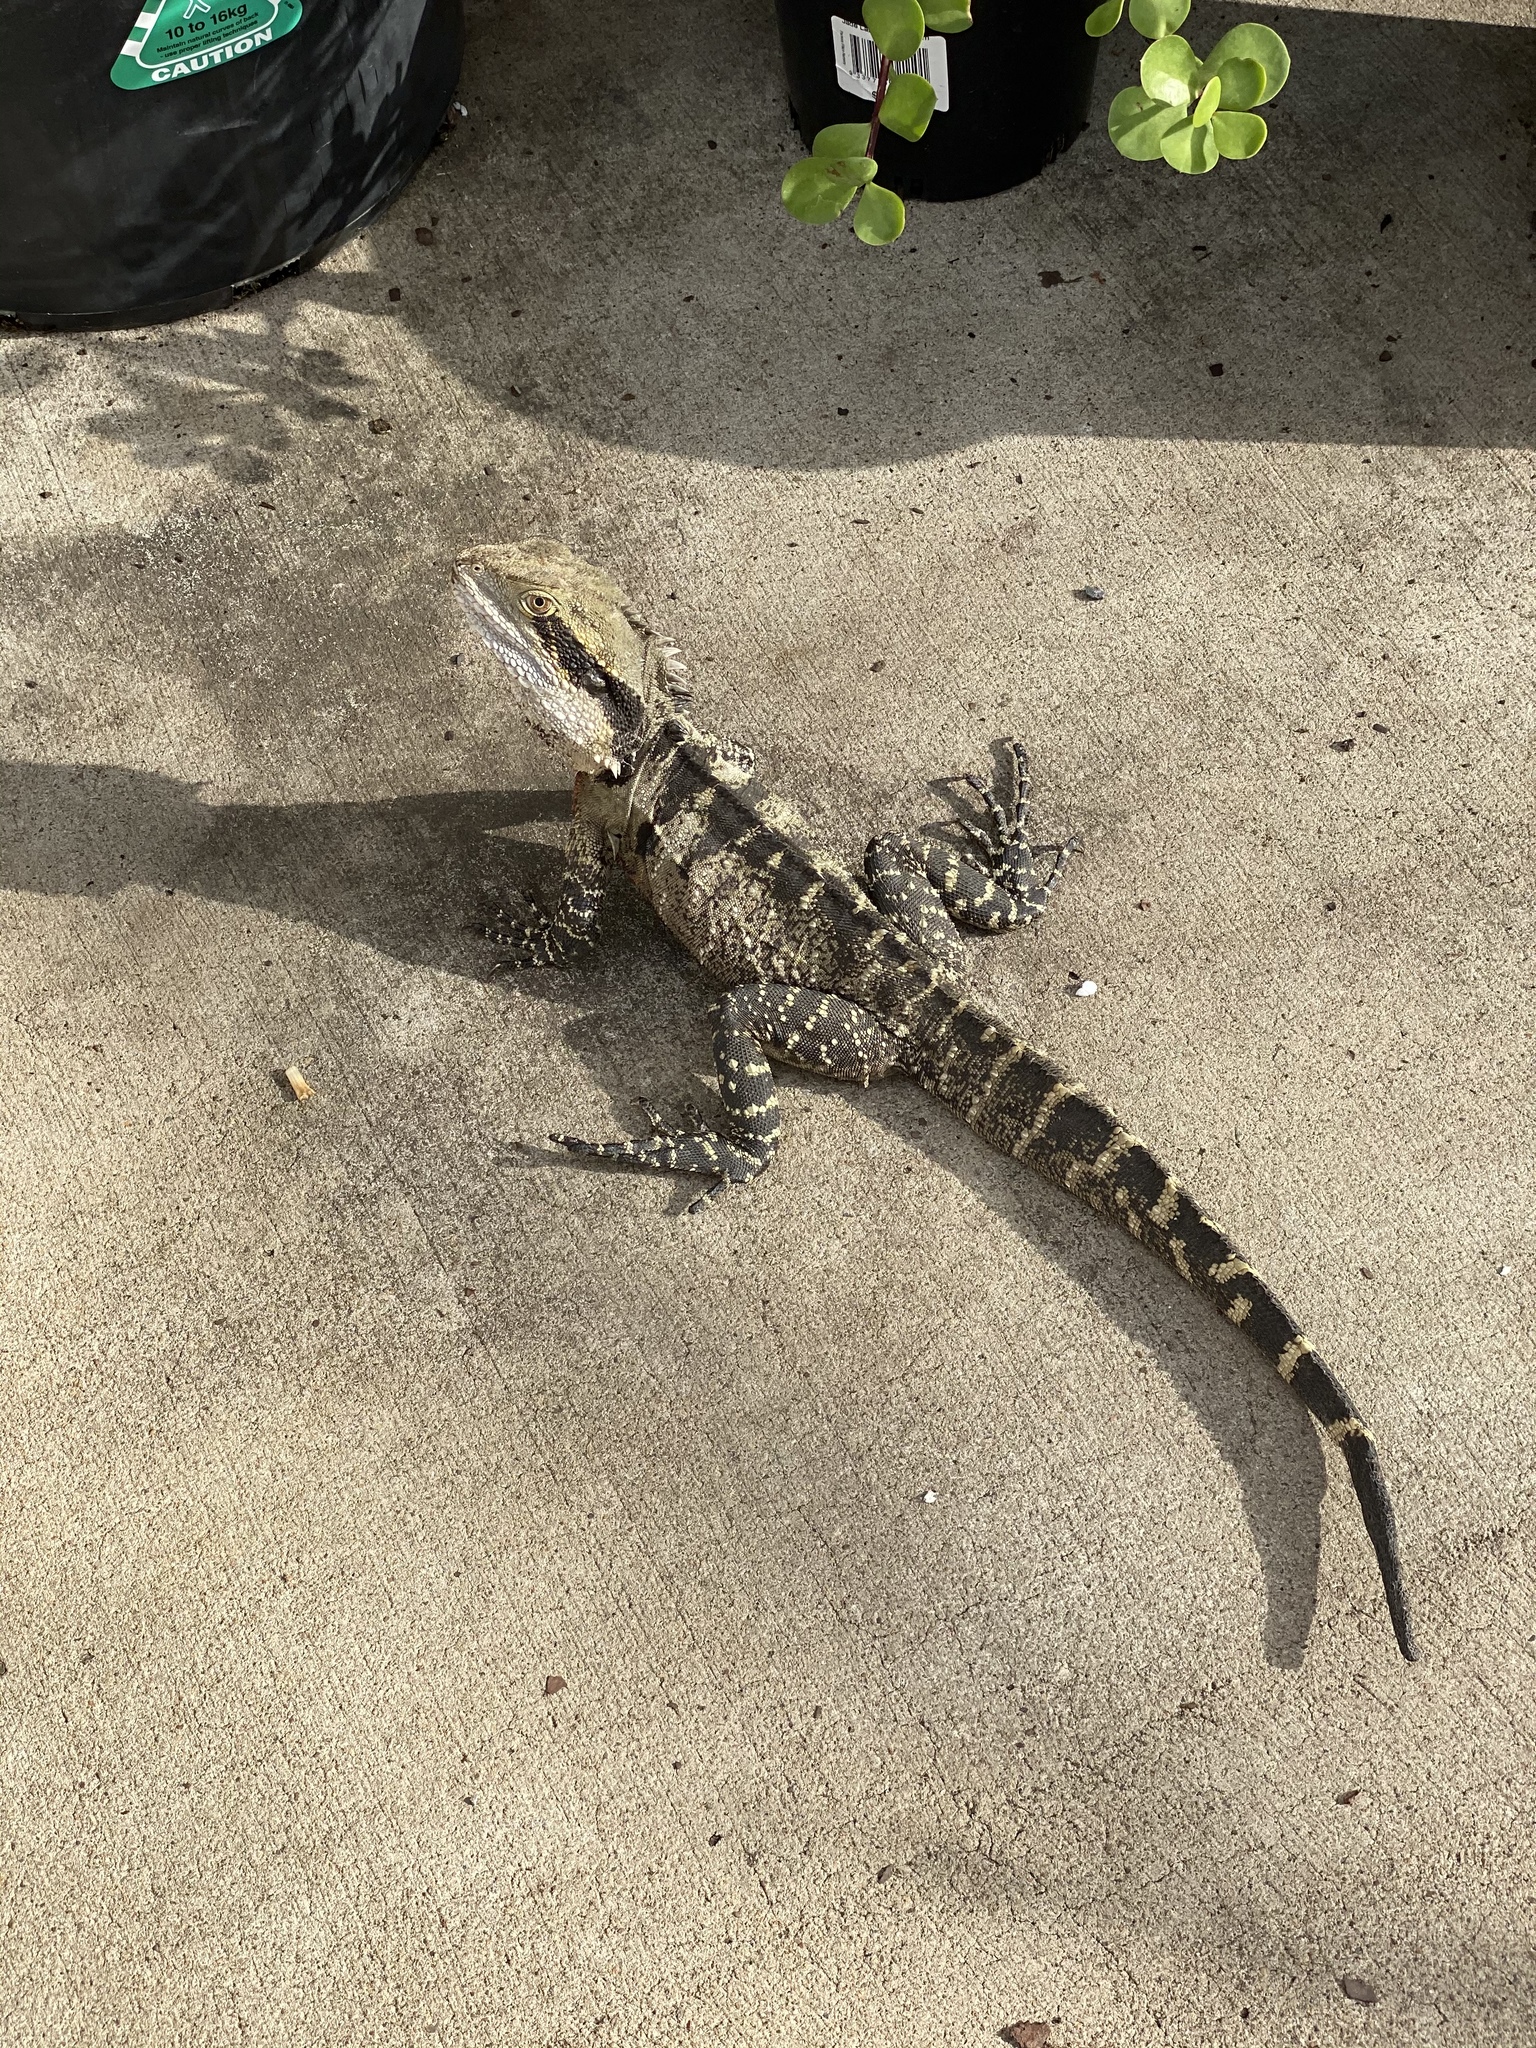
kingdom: Animalia
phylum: Chordata
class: Squamata
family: Agamidae
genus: Intellagama
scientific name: Intellagama lesueurii
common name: Eastern water dragon
